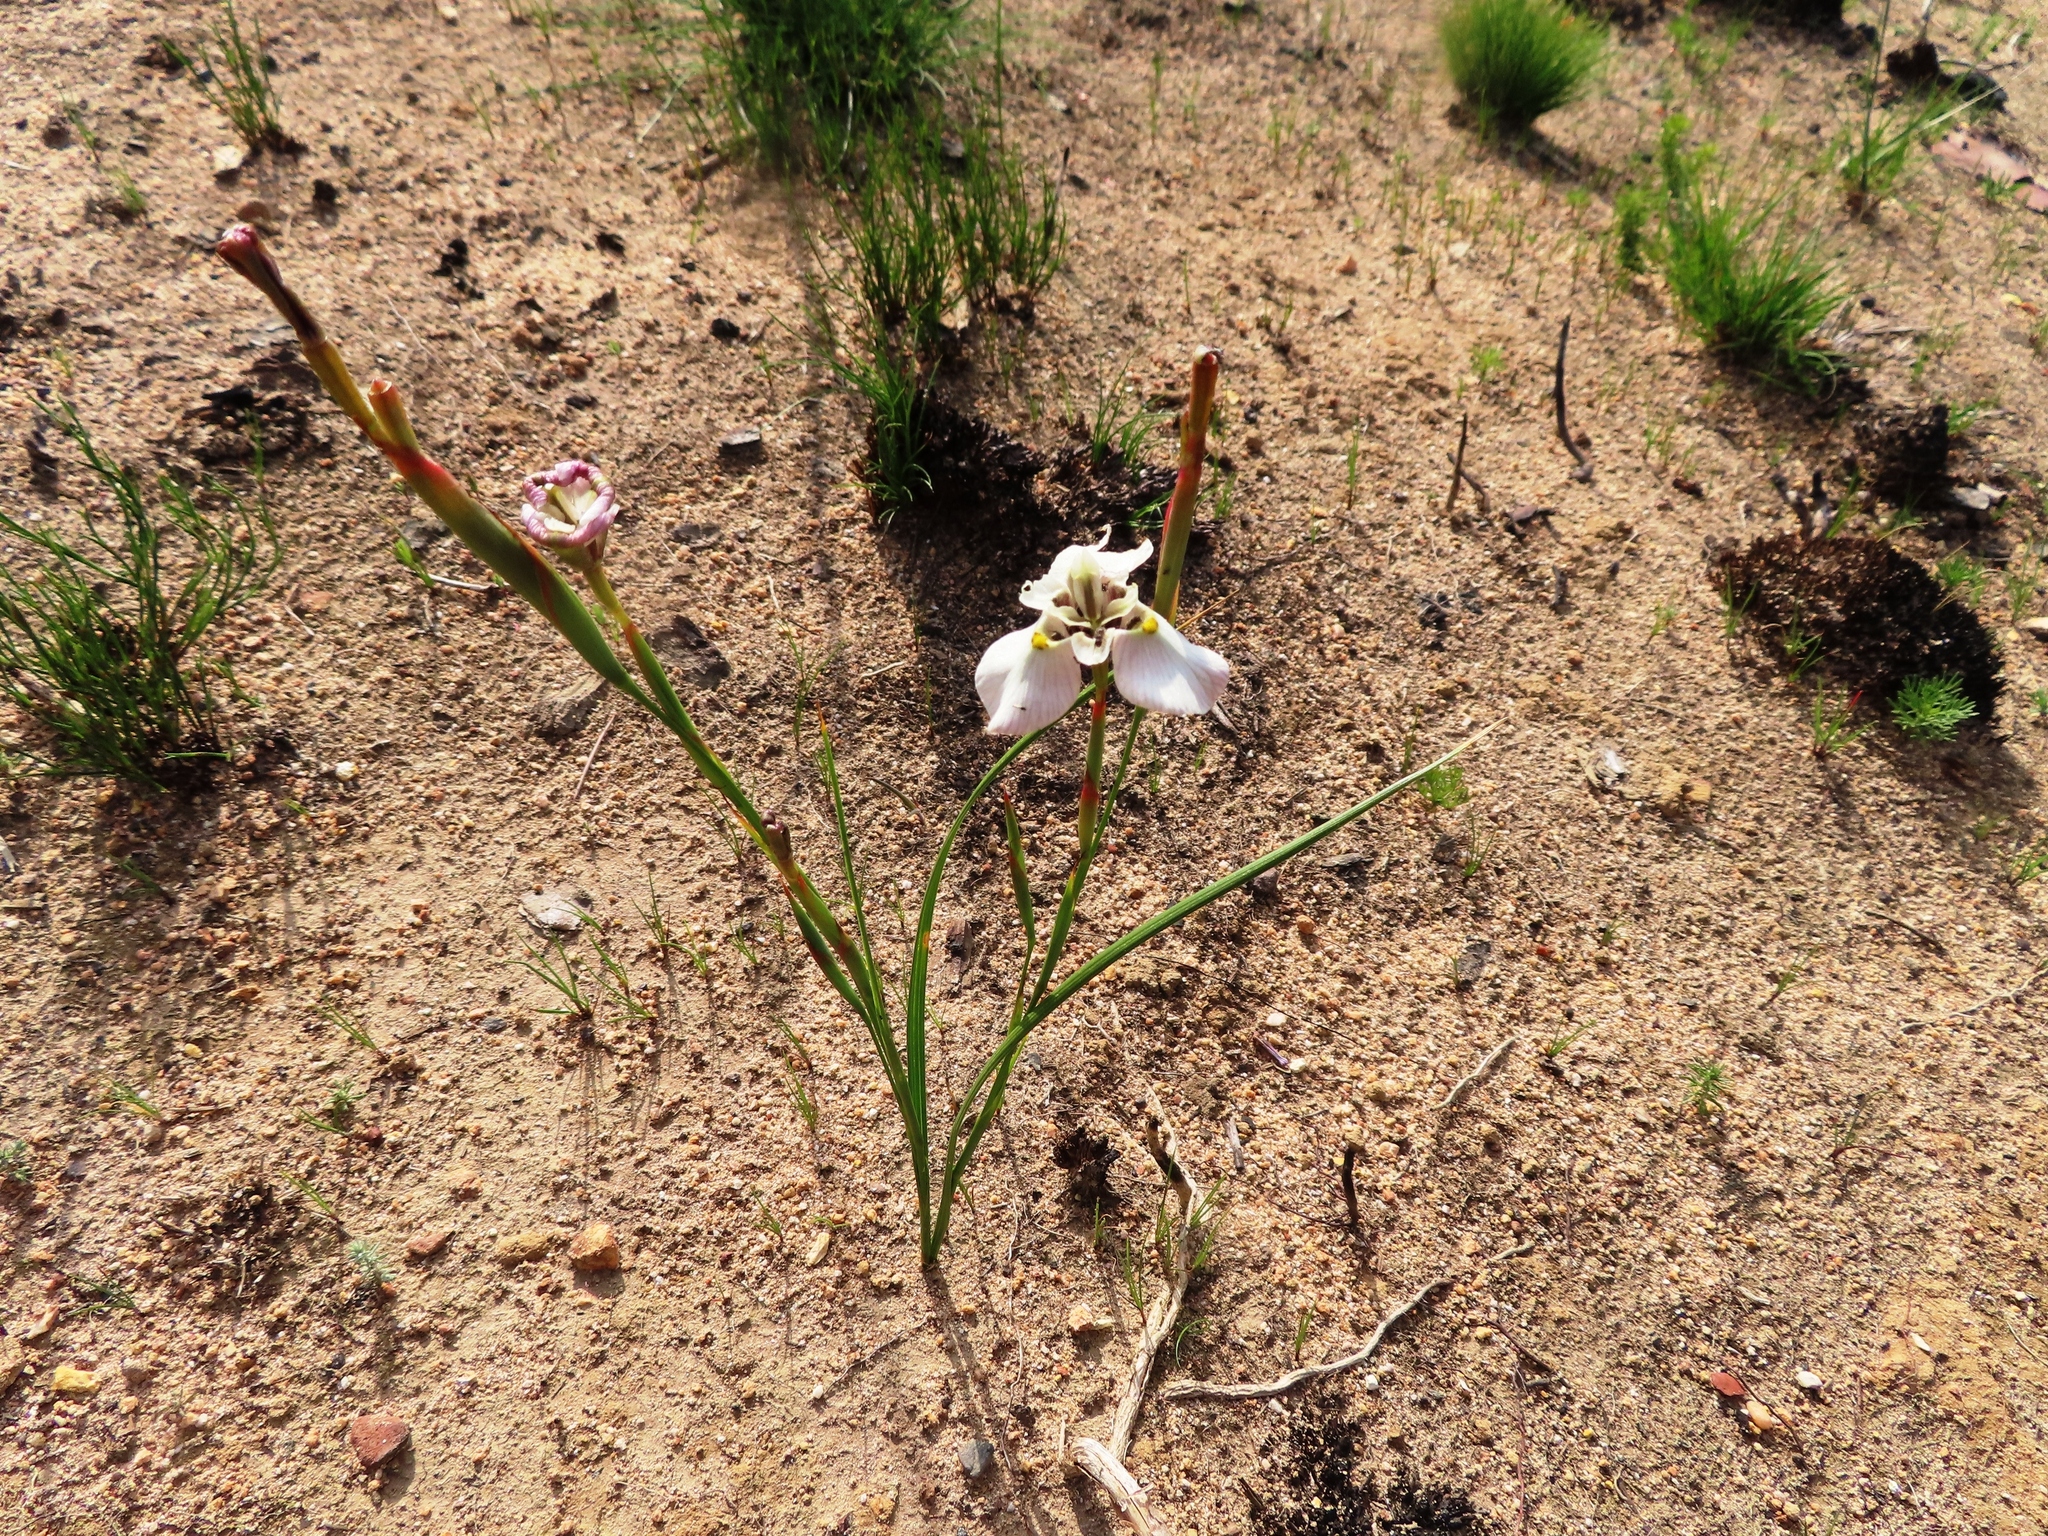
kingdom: Plantae
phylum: Tracheophyta
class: Liliopsida
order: Asparagales
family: Iridaceae
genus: Moraea
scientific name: Moraea cantharophila
